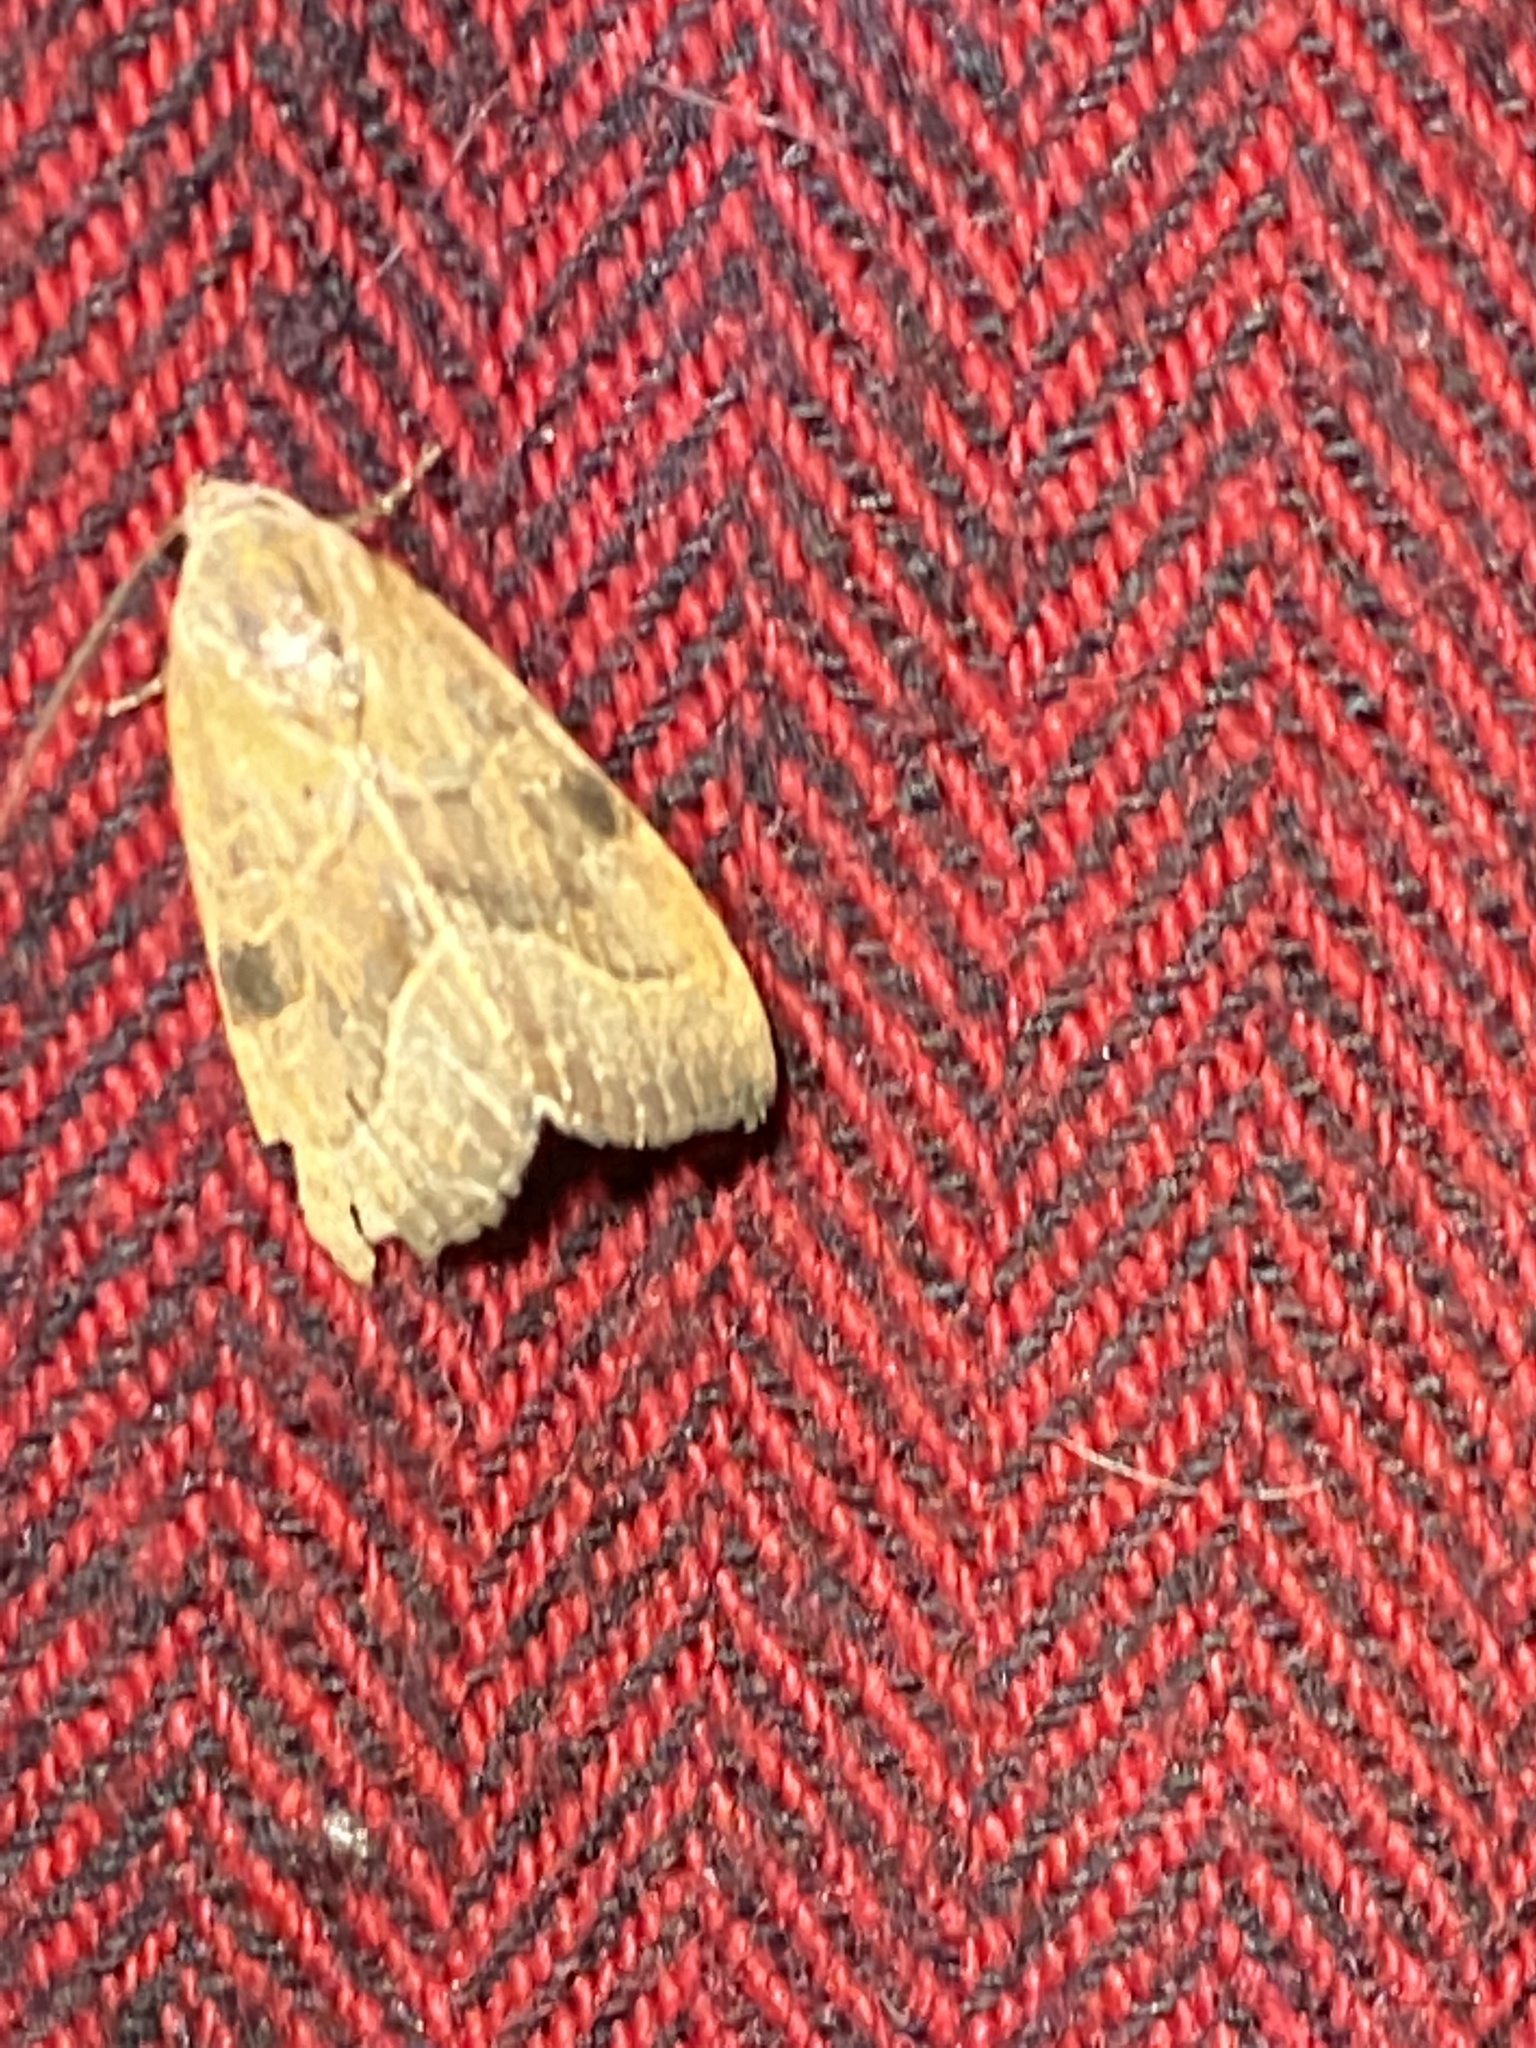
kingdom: Animalia
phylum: Arthropoda
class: Insecta
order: Lepidoptera
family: Noctuidae
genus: Galgula
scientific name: Galgula partita
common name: Wedgeling
